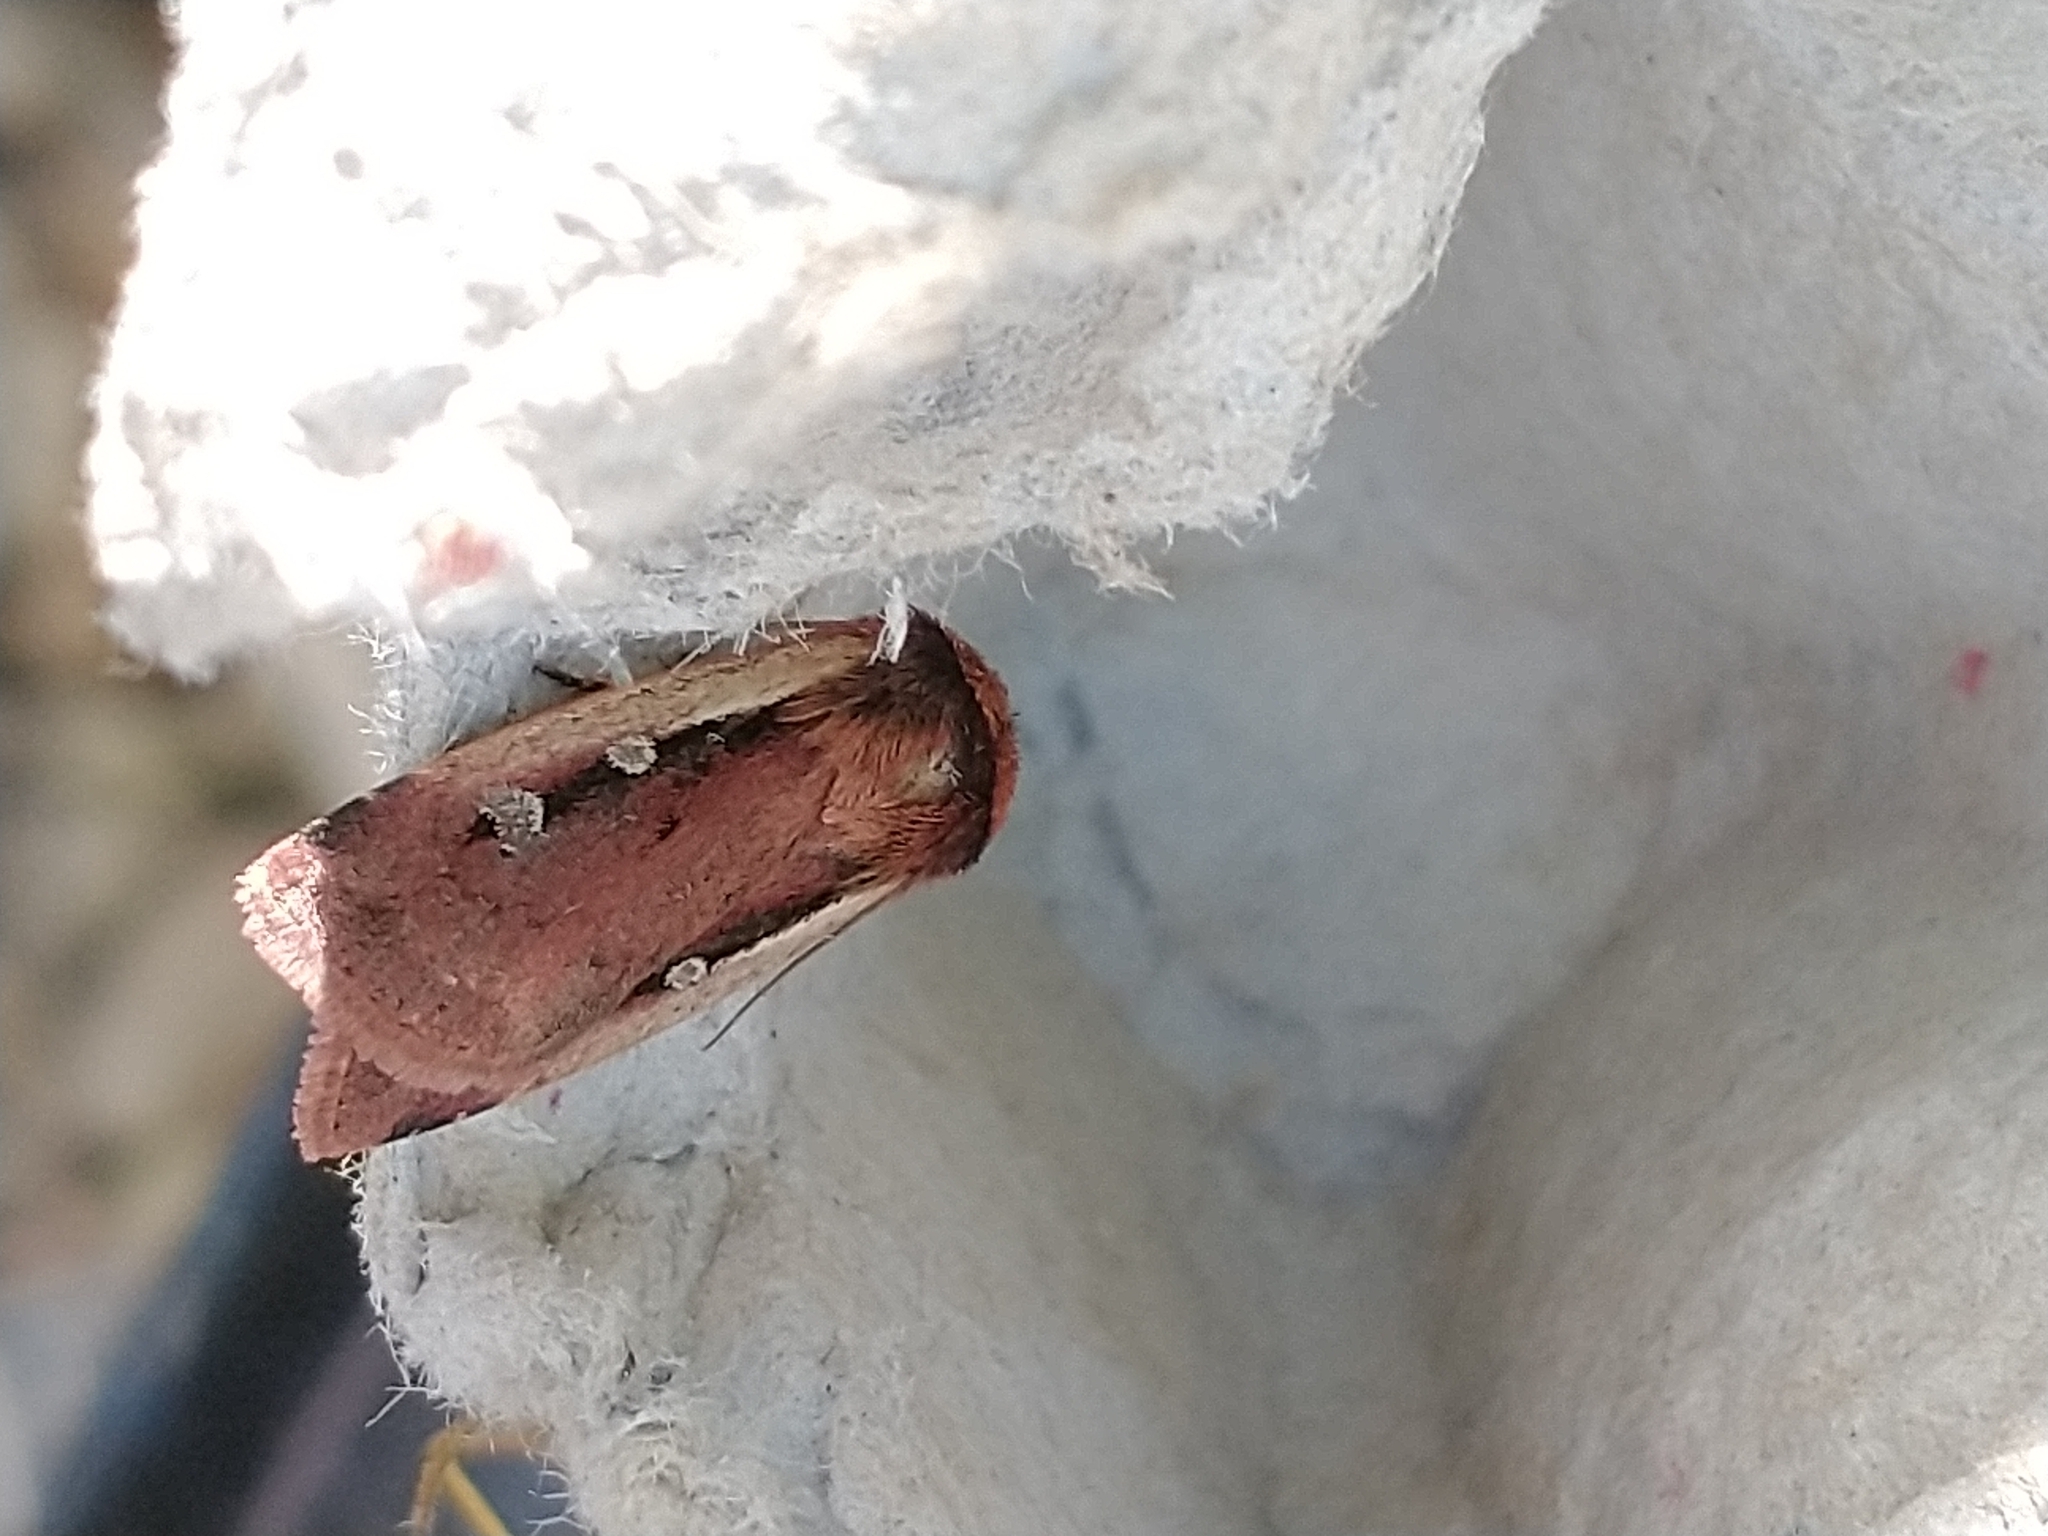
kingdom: Animalia
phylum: Arthropoda
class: Insecta
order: Lepidoptera
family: Noctuidae
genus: Ochropleura
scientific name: Ochropleura plecta
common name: Flame shoulder
